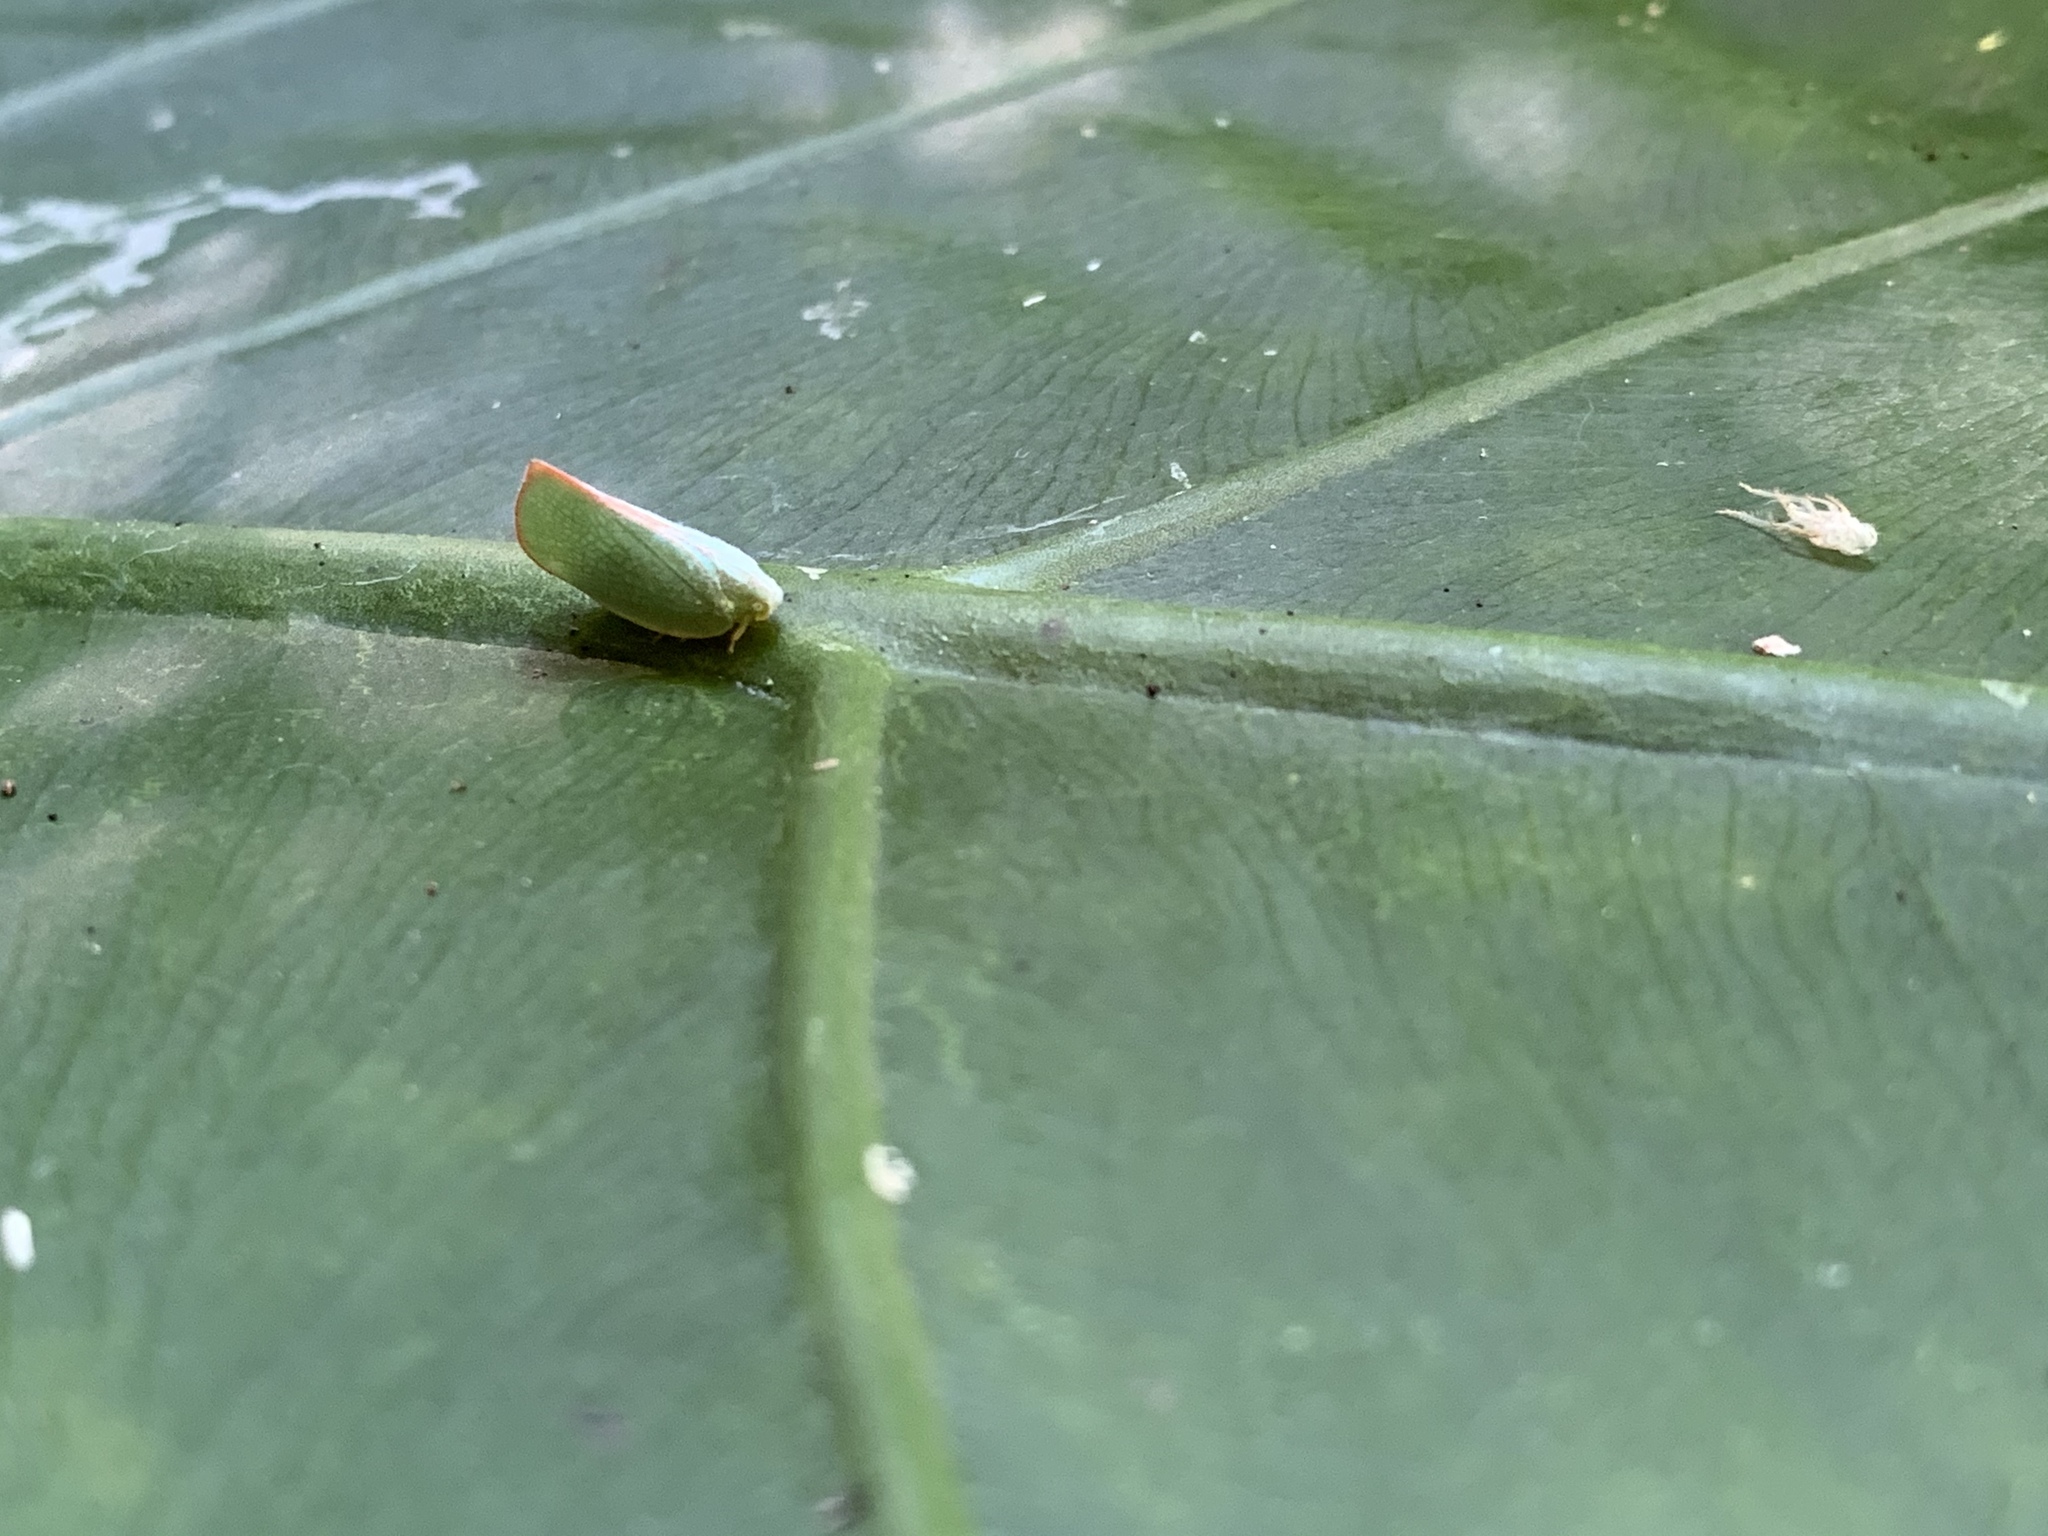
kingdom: Animalia
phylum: Arthropoda
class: Insecta
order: Hemiptera
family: Flatidae
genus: Geisha
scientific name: Geisha distinctissima
